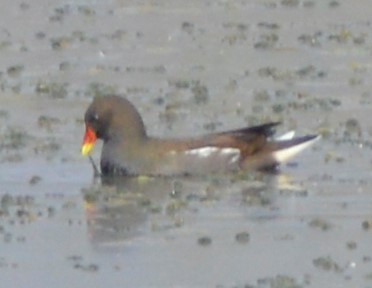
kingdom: Animalia
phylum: Chordata
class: Aves
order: Gruiformes
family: Rallidae
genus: Gallinula
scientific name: Gallinula chloropus
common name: Common moorhen
